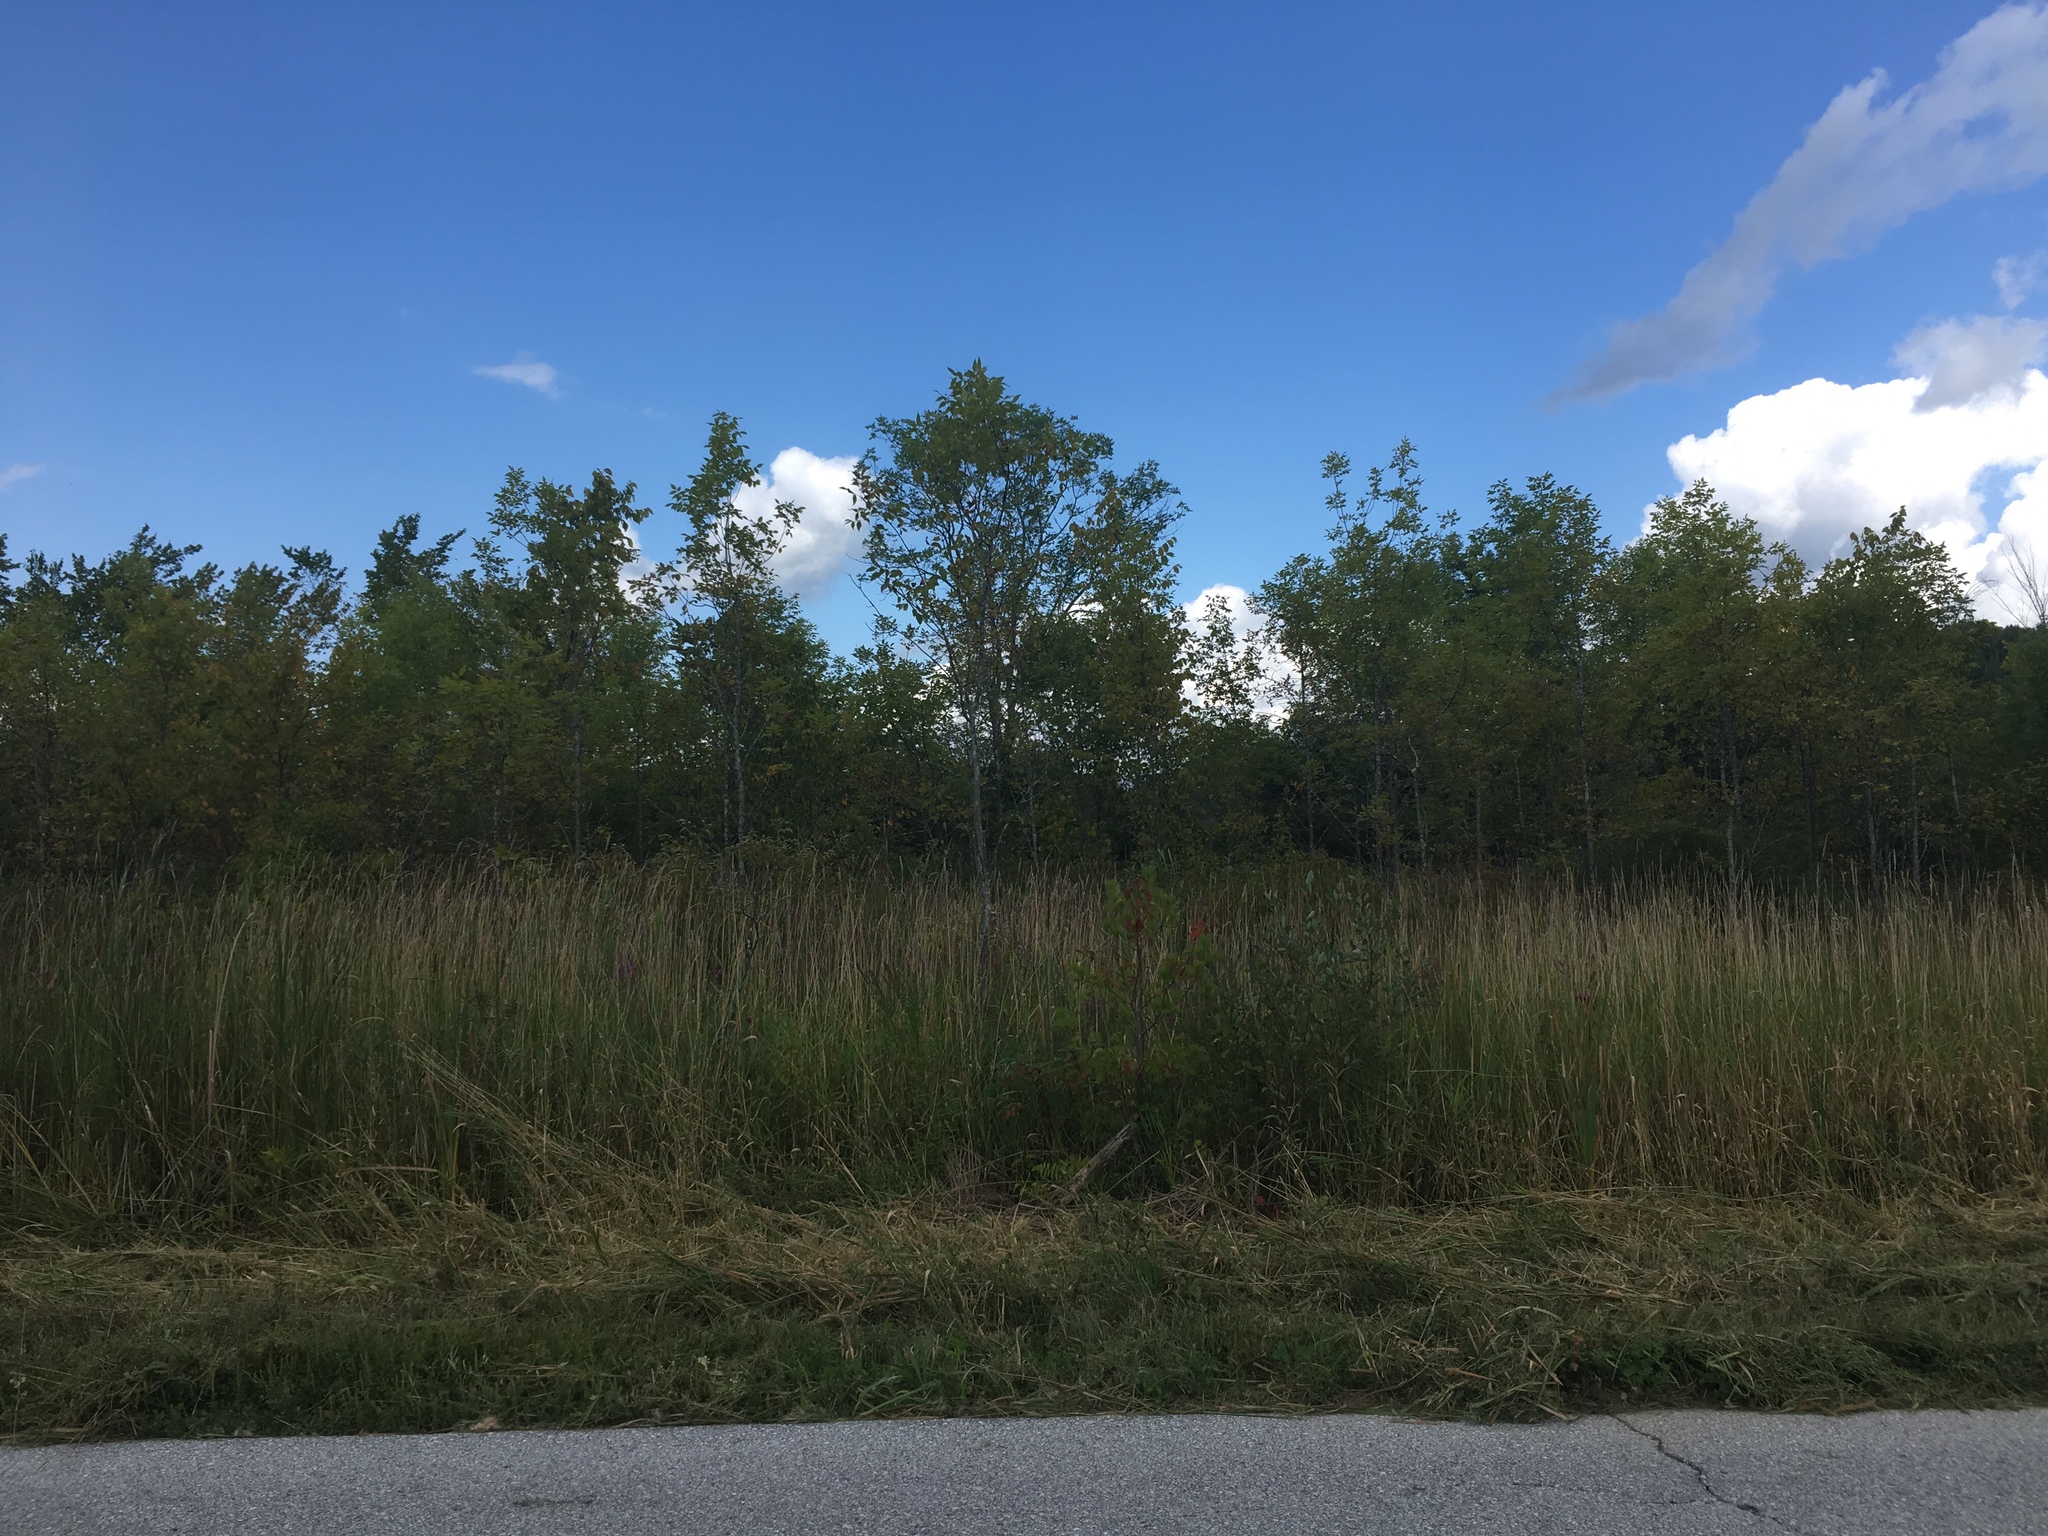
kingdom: Plantae
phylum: Tracheophyta
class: Liliopsida
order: Poales
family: Poaceae
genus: Phalaris
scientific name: Phalaris arundinacea
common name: Reed canary-grass
